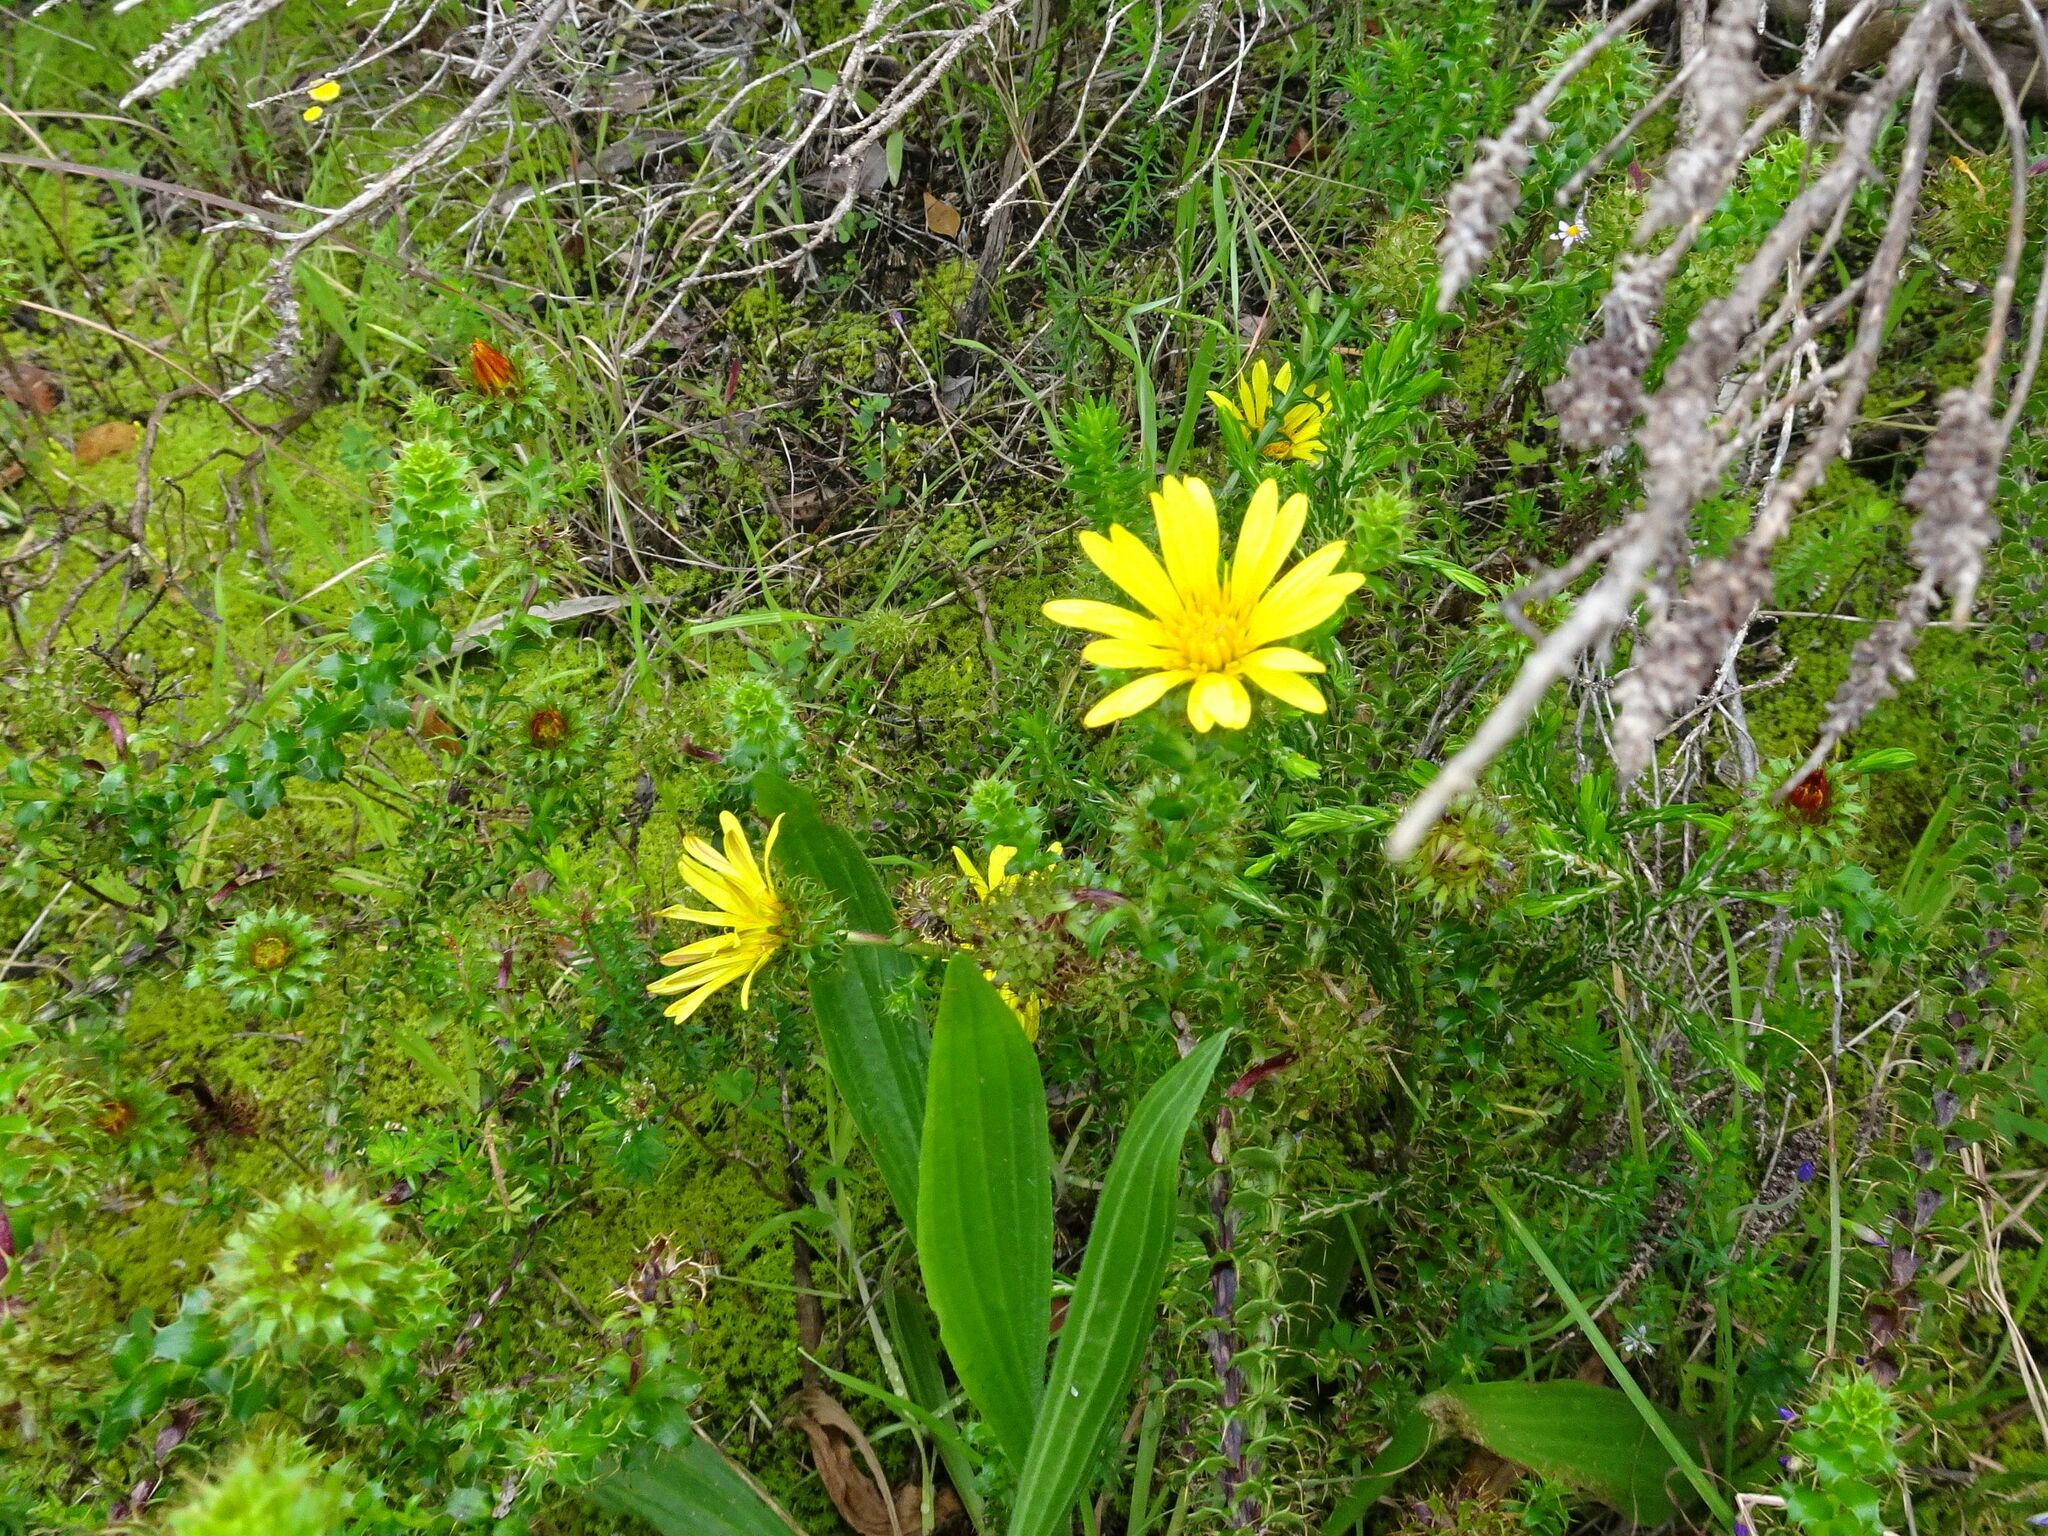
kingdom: Plantae
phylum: Tracheophyta
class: Magnoliopsida
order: Asterales
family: Asteraceae
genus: Cullumia
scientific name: Cullumia setosa
